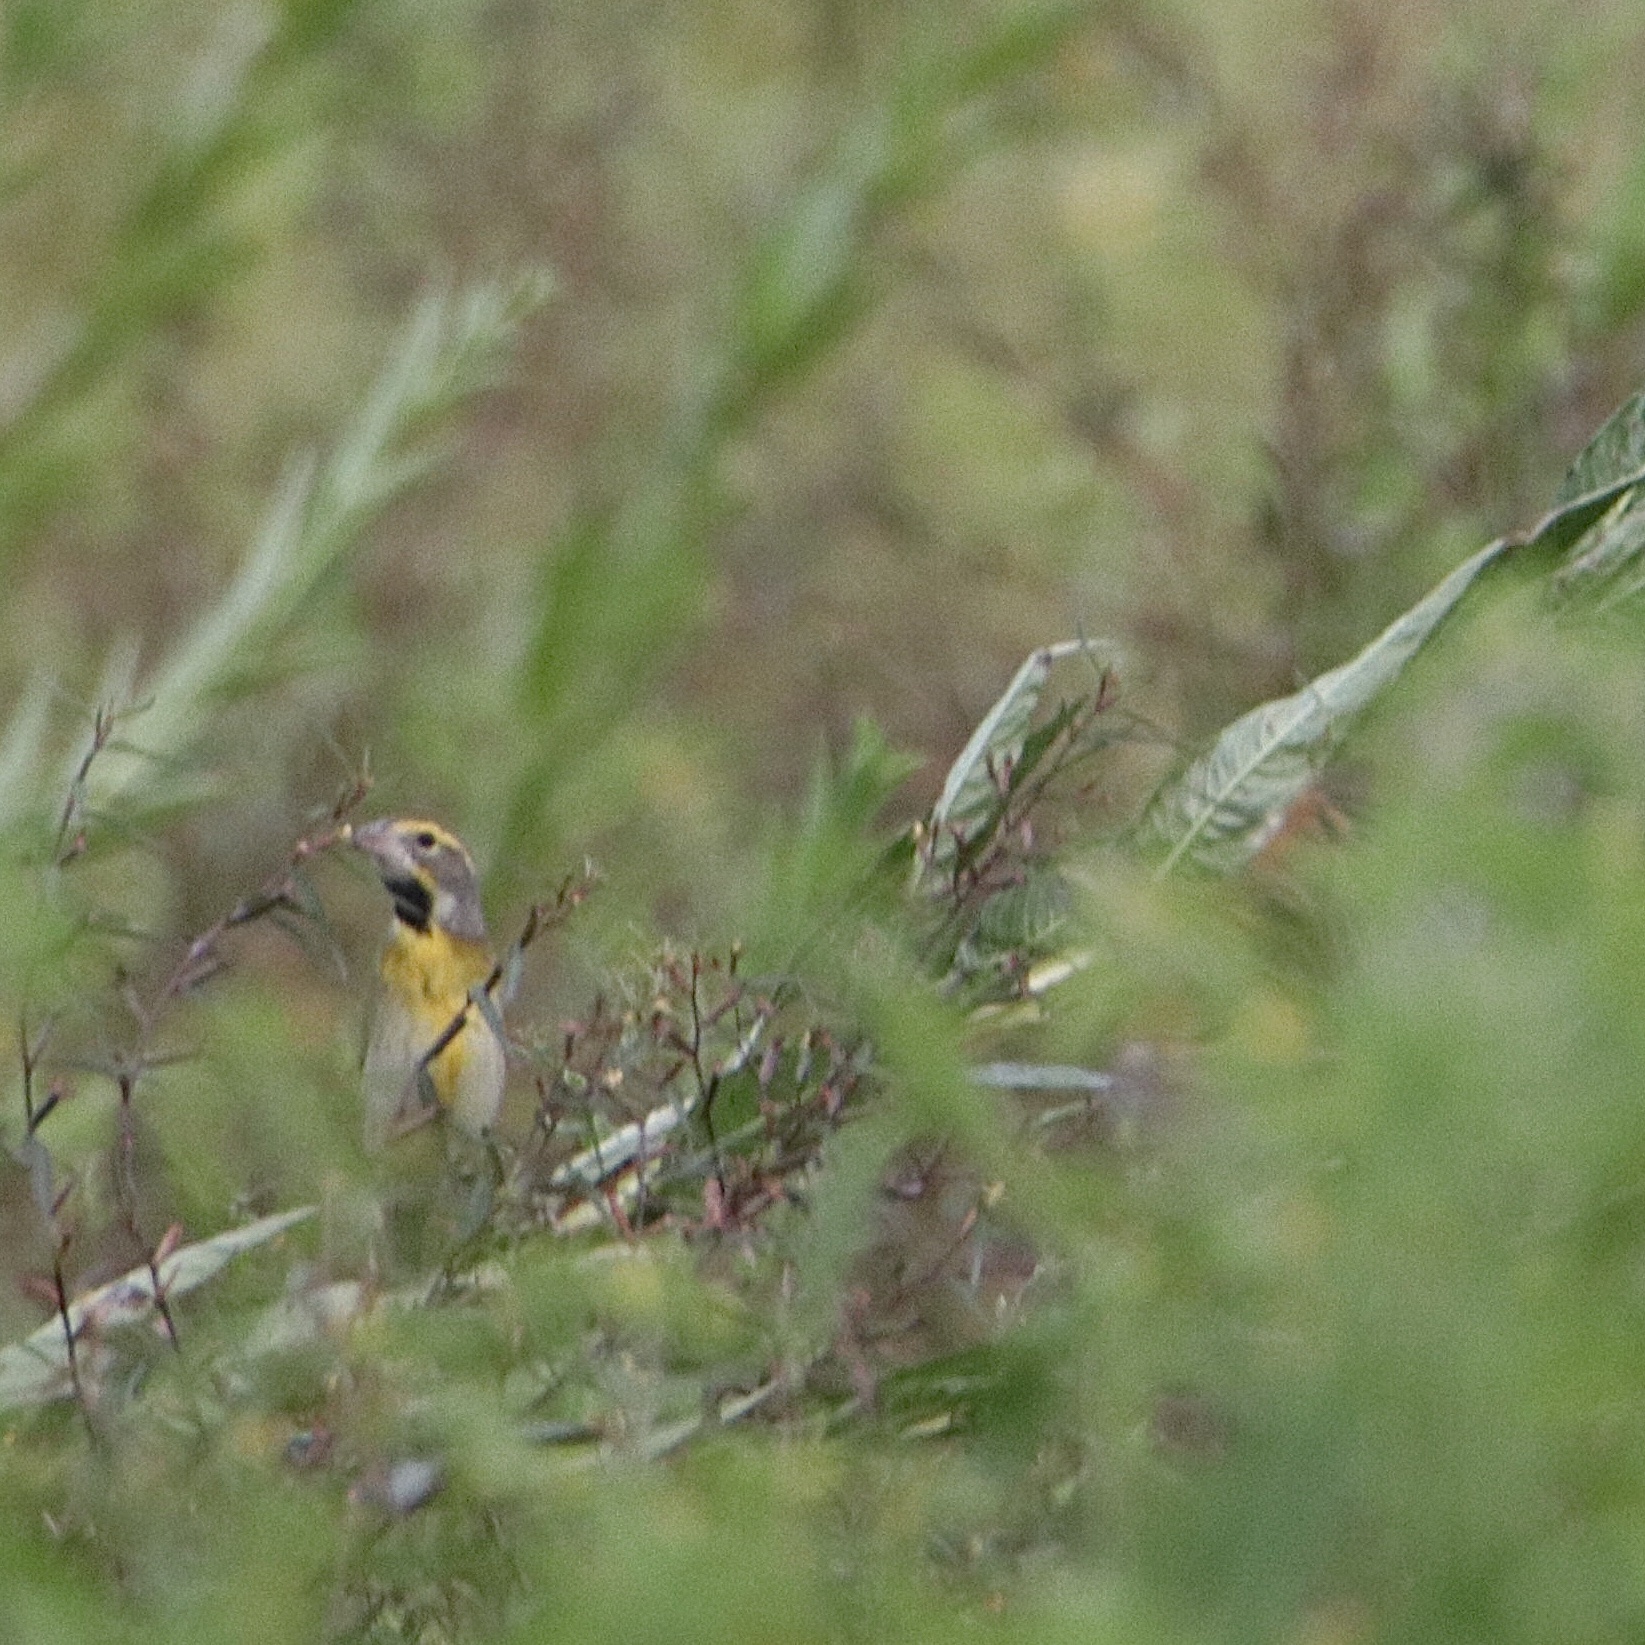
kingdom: Animalia
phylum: Chordata
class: Aves
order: Passeriformes
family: Cardinalidae
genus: Spiza
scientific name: Spiza americana
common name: Dickcissel
